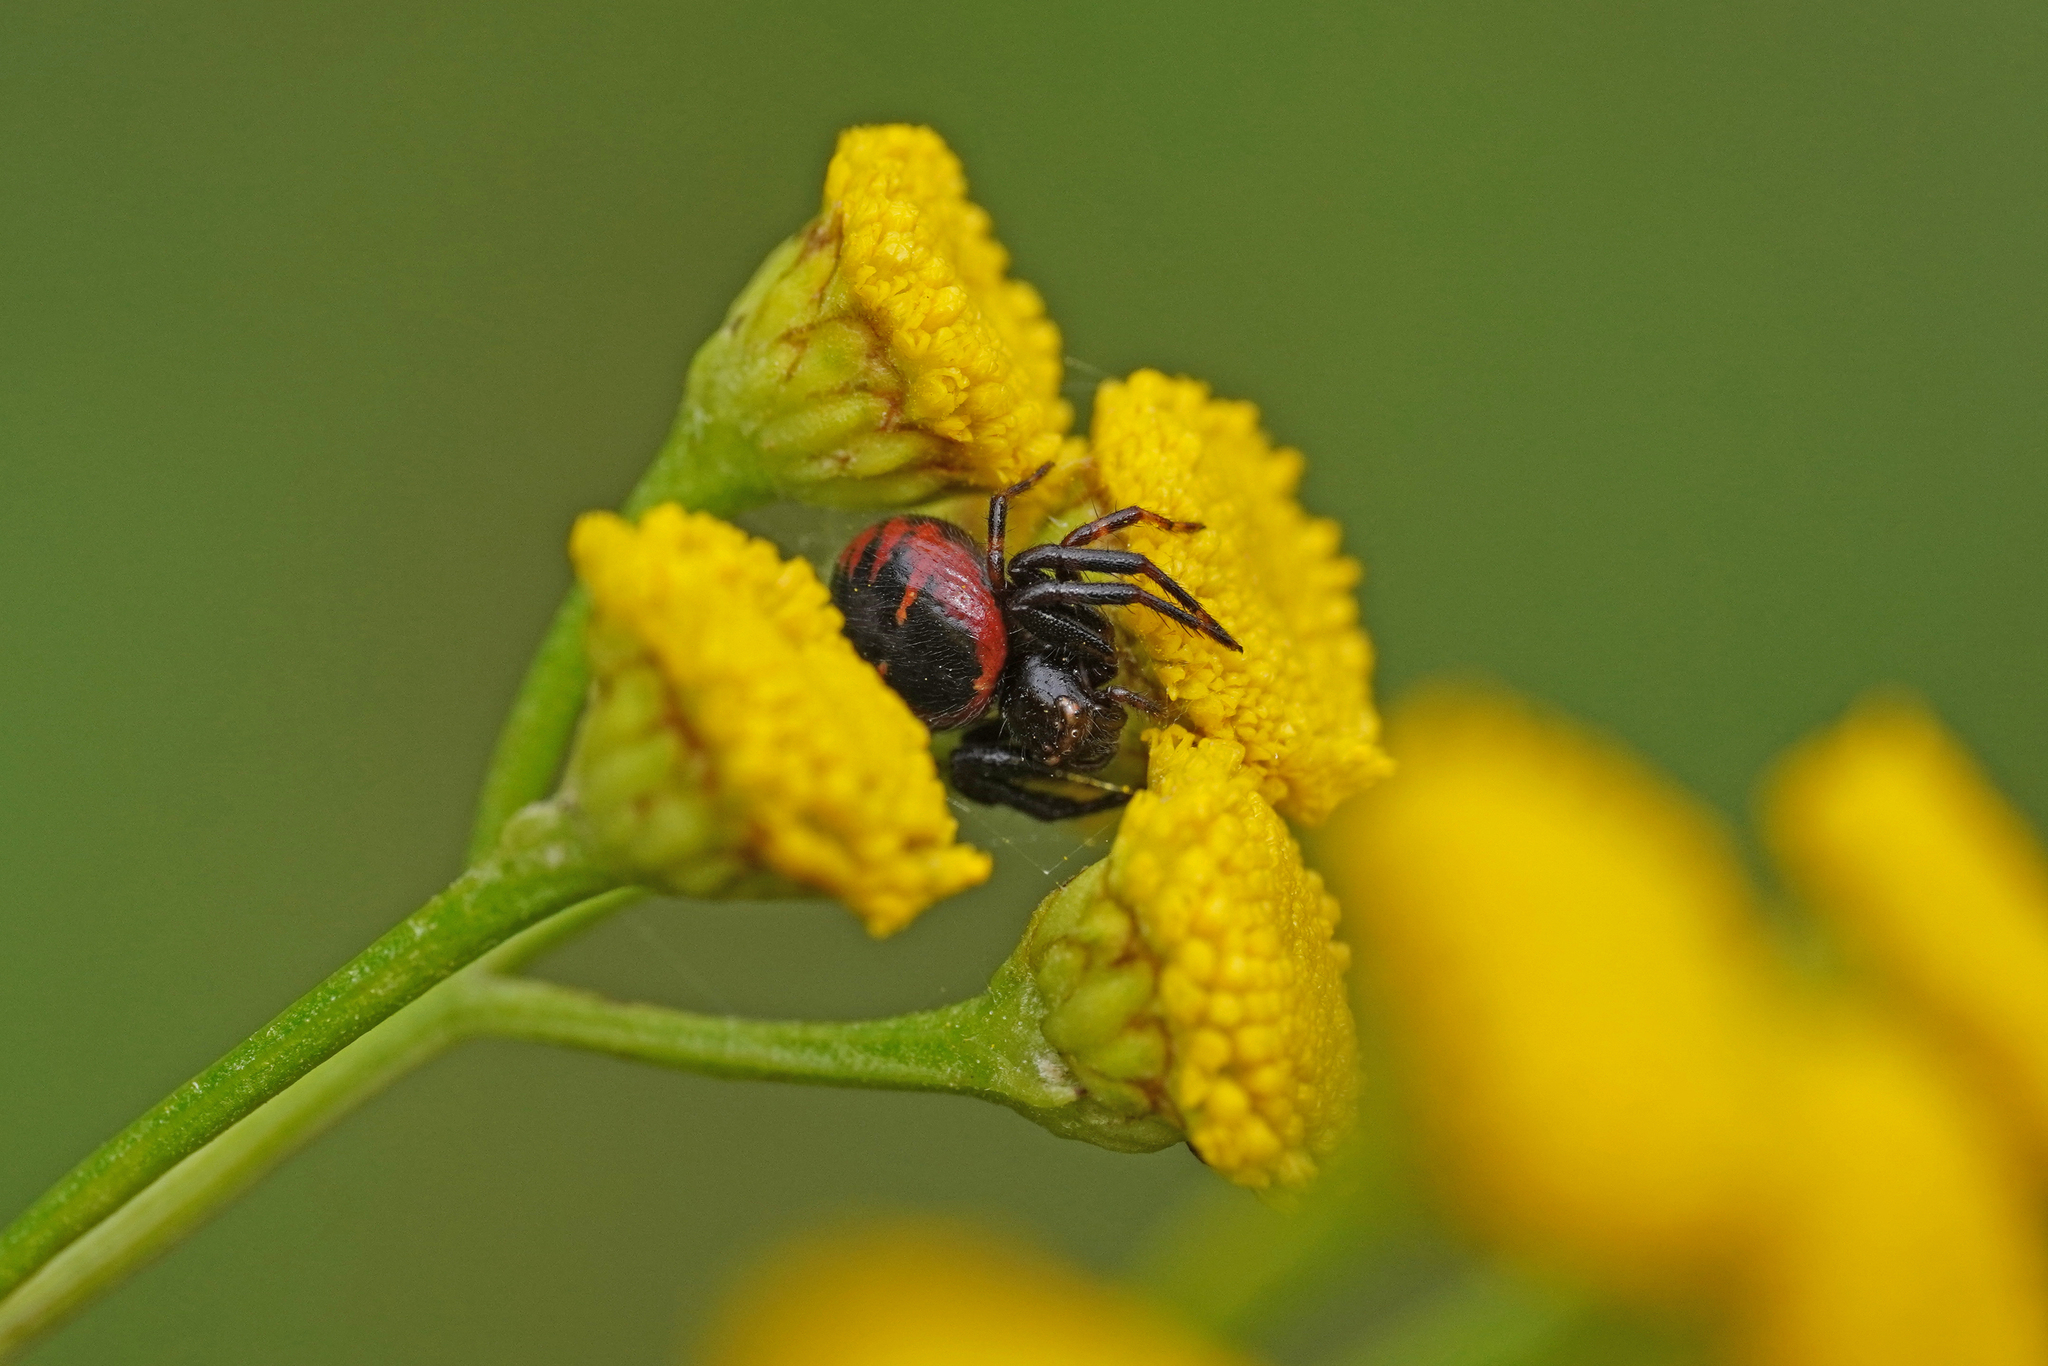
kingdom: Animalia
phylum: Arthropoda
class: Arachnida
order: Araneae
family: Thomisidae
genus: Synema
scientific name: Synema globosum
